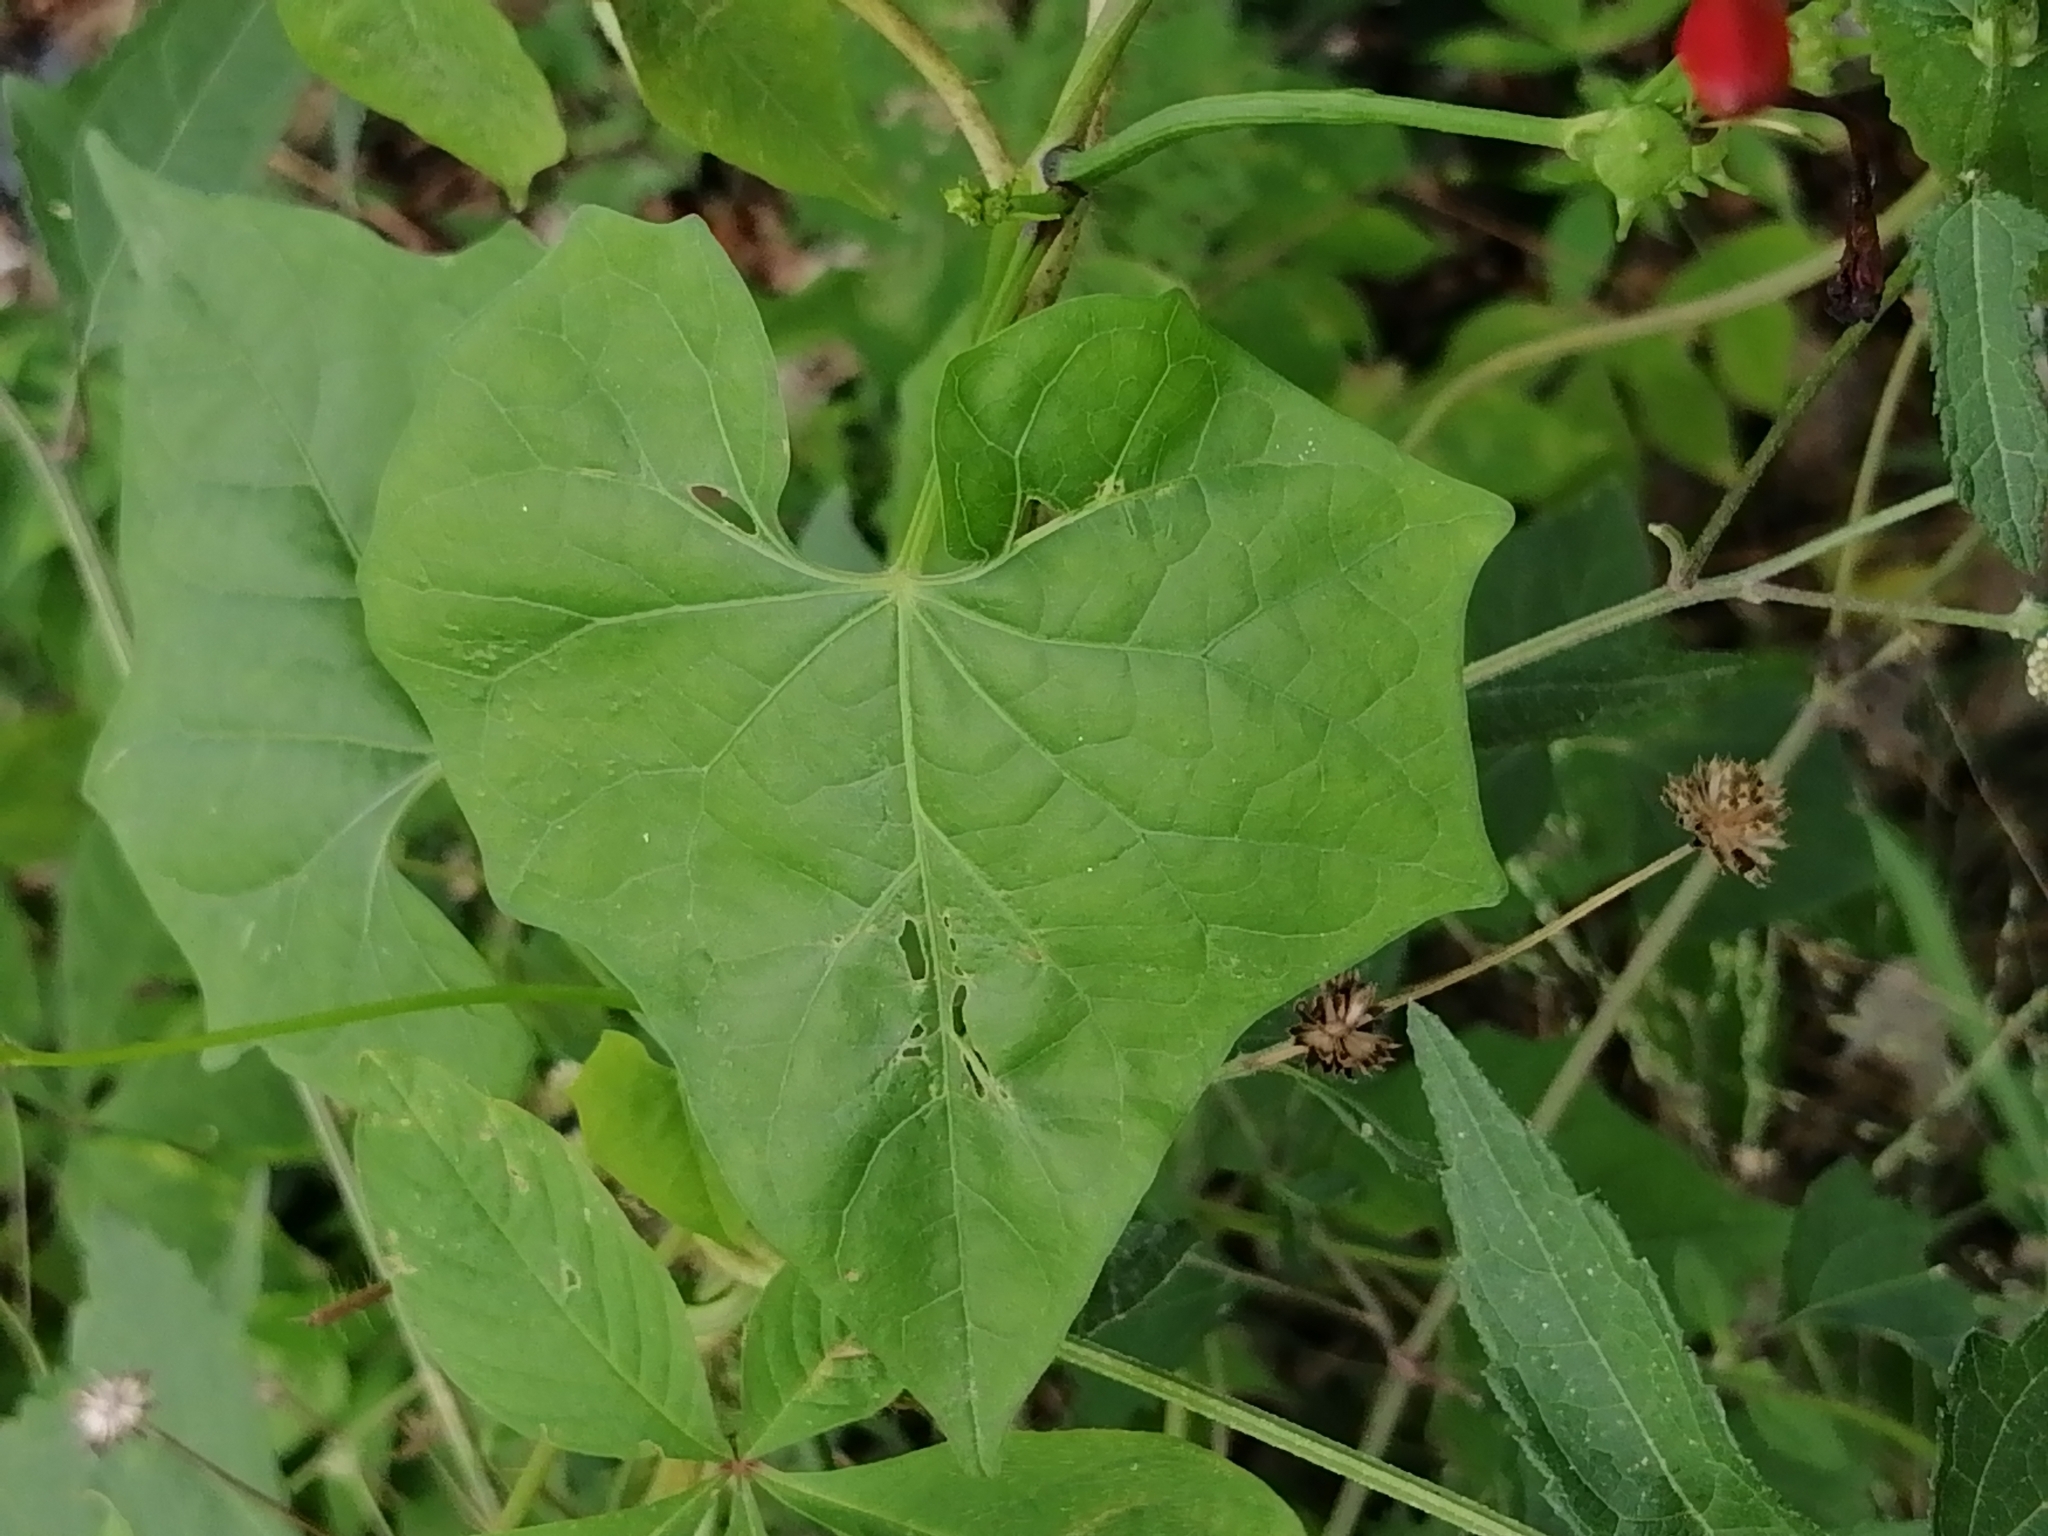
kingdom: Plantae
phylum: Tracheophyta
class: Magnoliopsida
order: Solanales
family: Convolvulaceae
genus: Ipomoea
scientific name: Ipomoea hederifolia
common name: Ivy-leaf morning-glory
